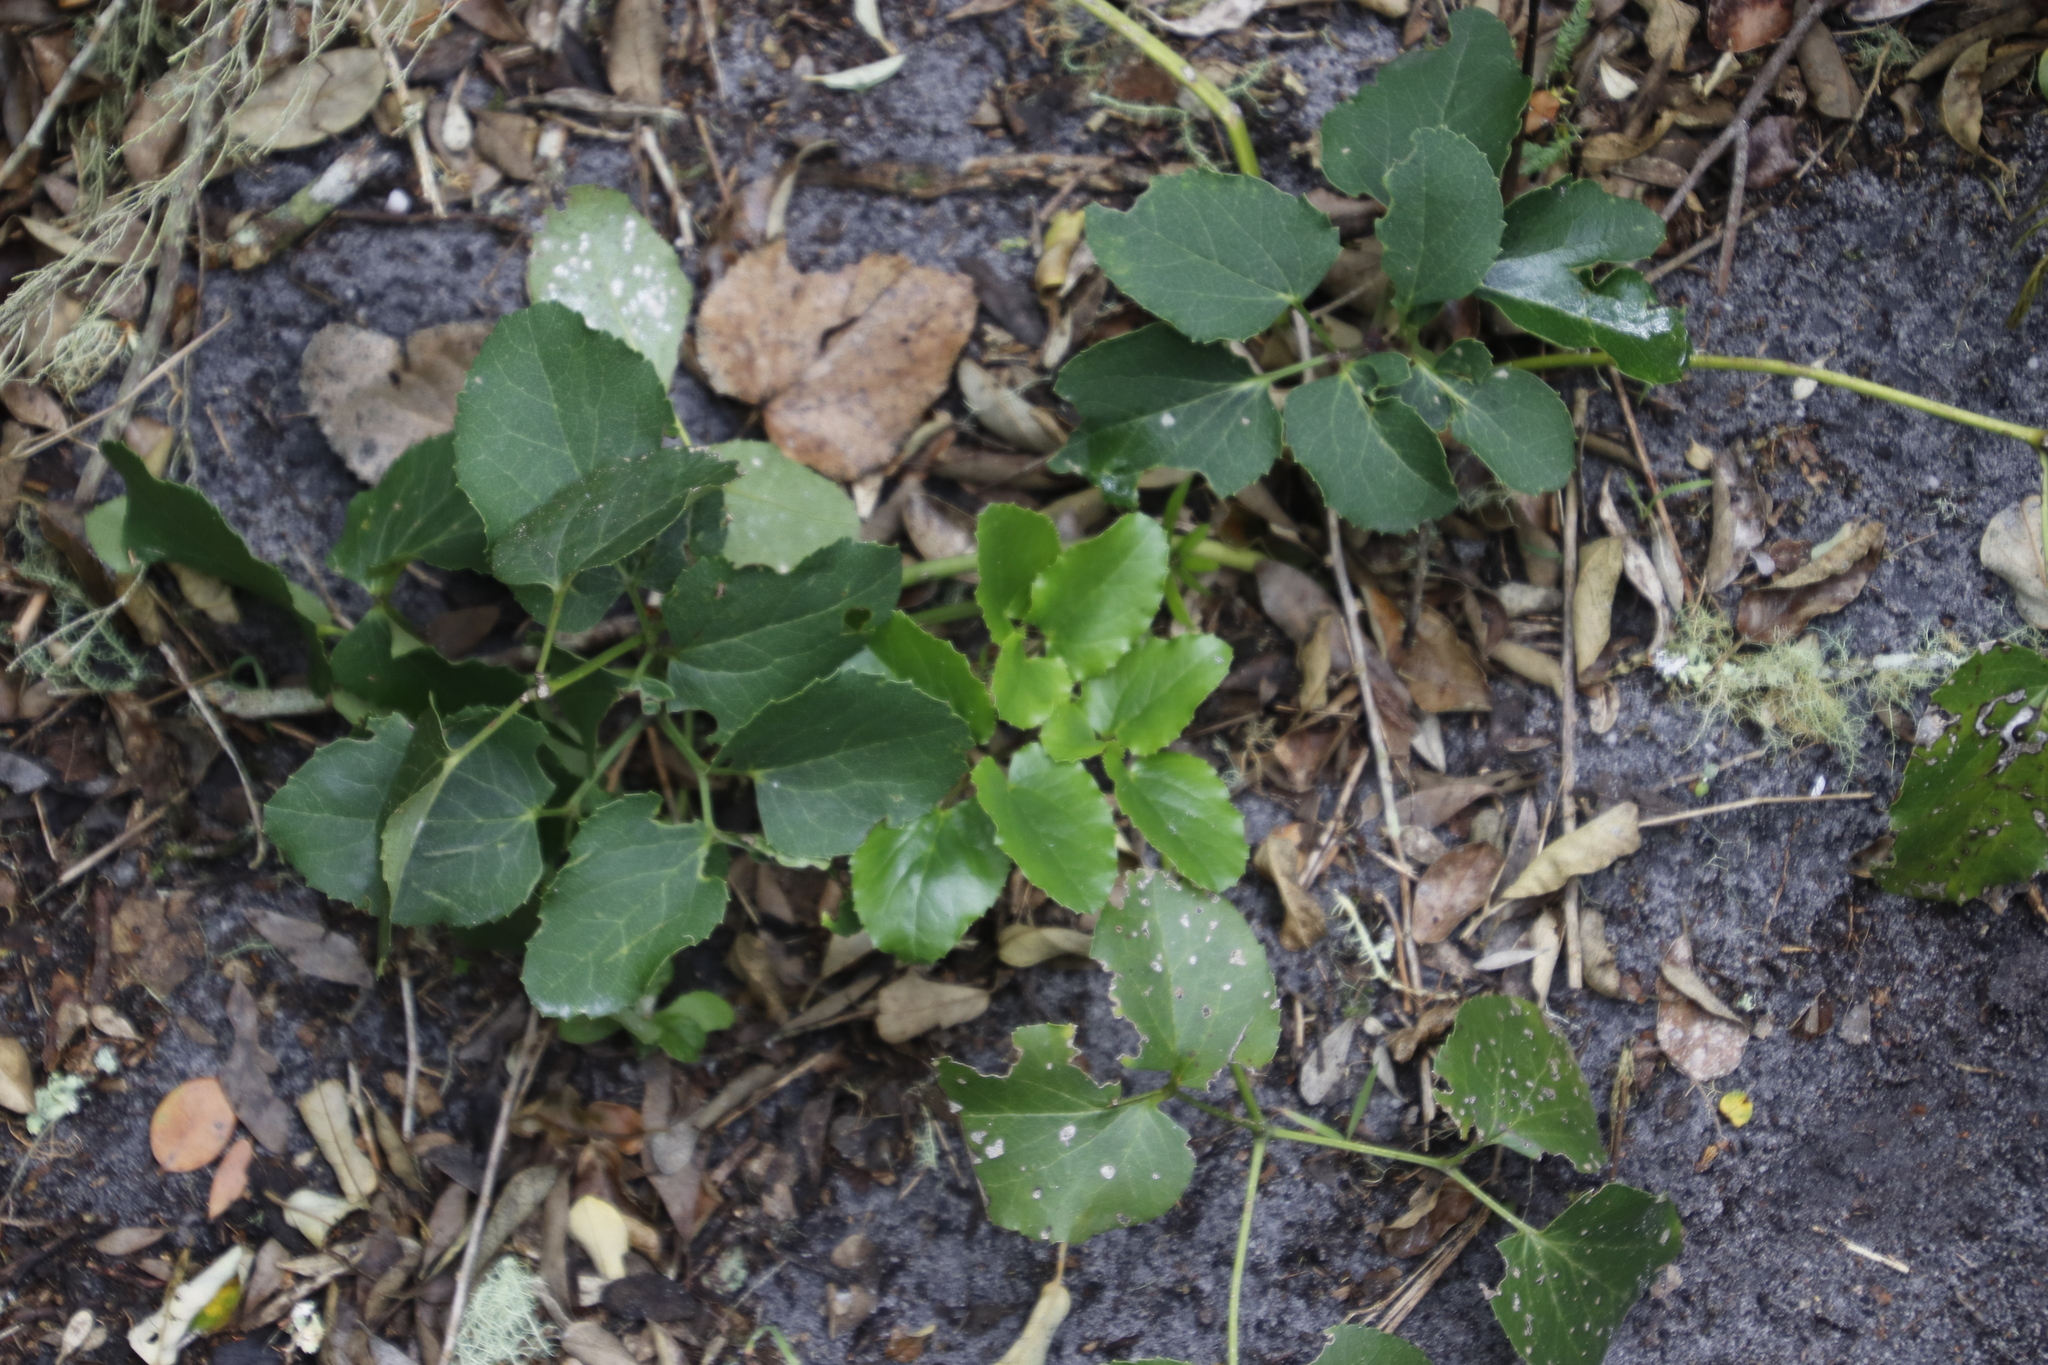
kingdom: Plantae
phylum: Tracheophyta
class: Magnoliopsida
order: Ranunculales
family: Ranunculaceae
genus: Knowltonia
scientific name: Knowltonia vesicatoria
